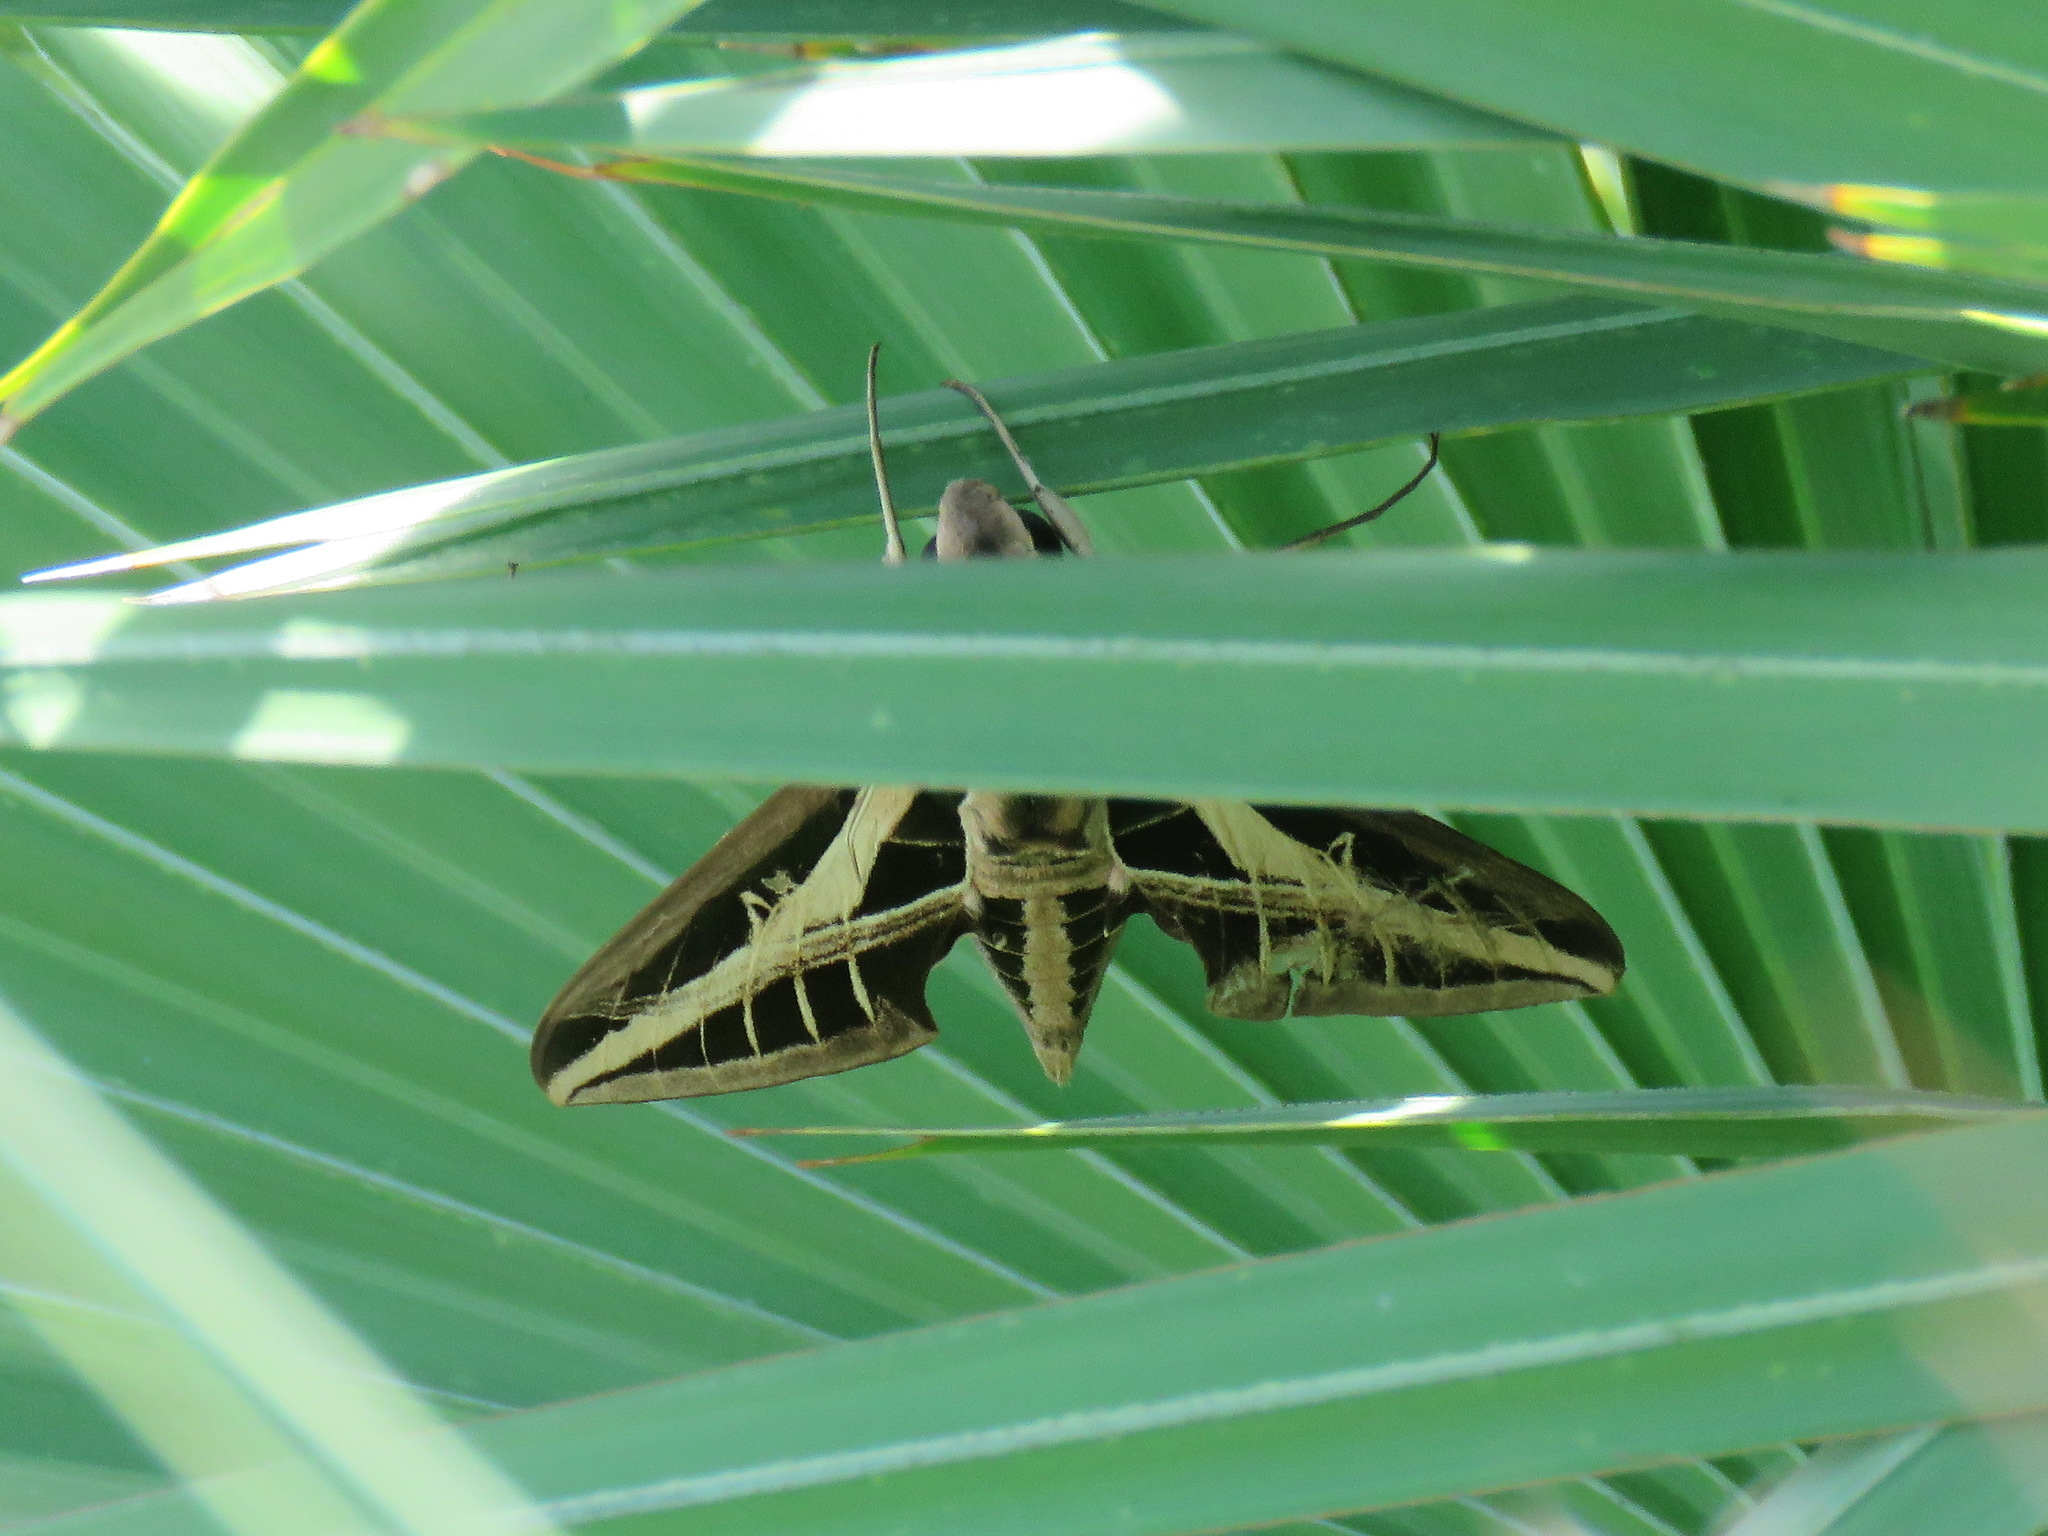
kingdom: Animalia
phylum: Arthropoda
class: Insecta
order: Lepidoptera
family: Sphingidae
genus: Eumorpha
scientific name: Eumorpha fasciatus
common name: Banded sphinx
